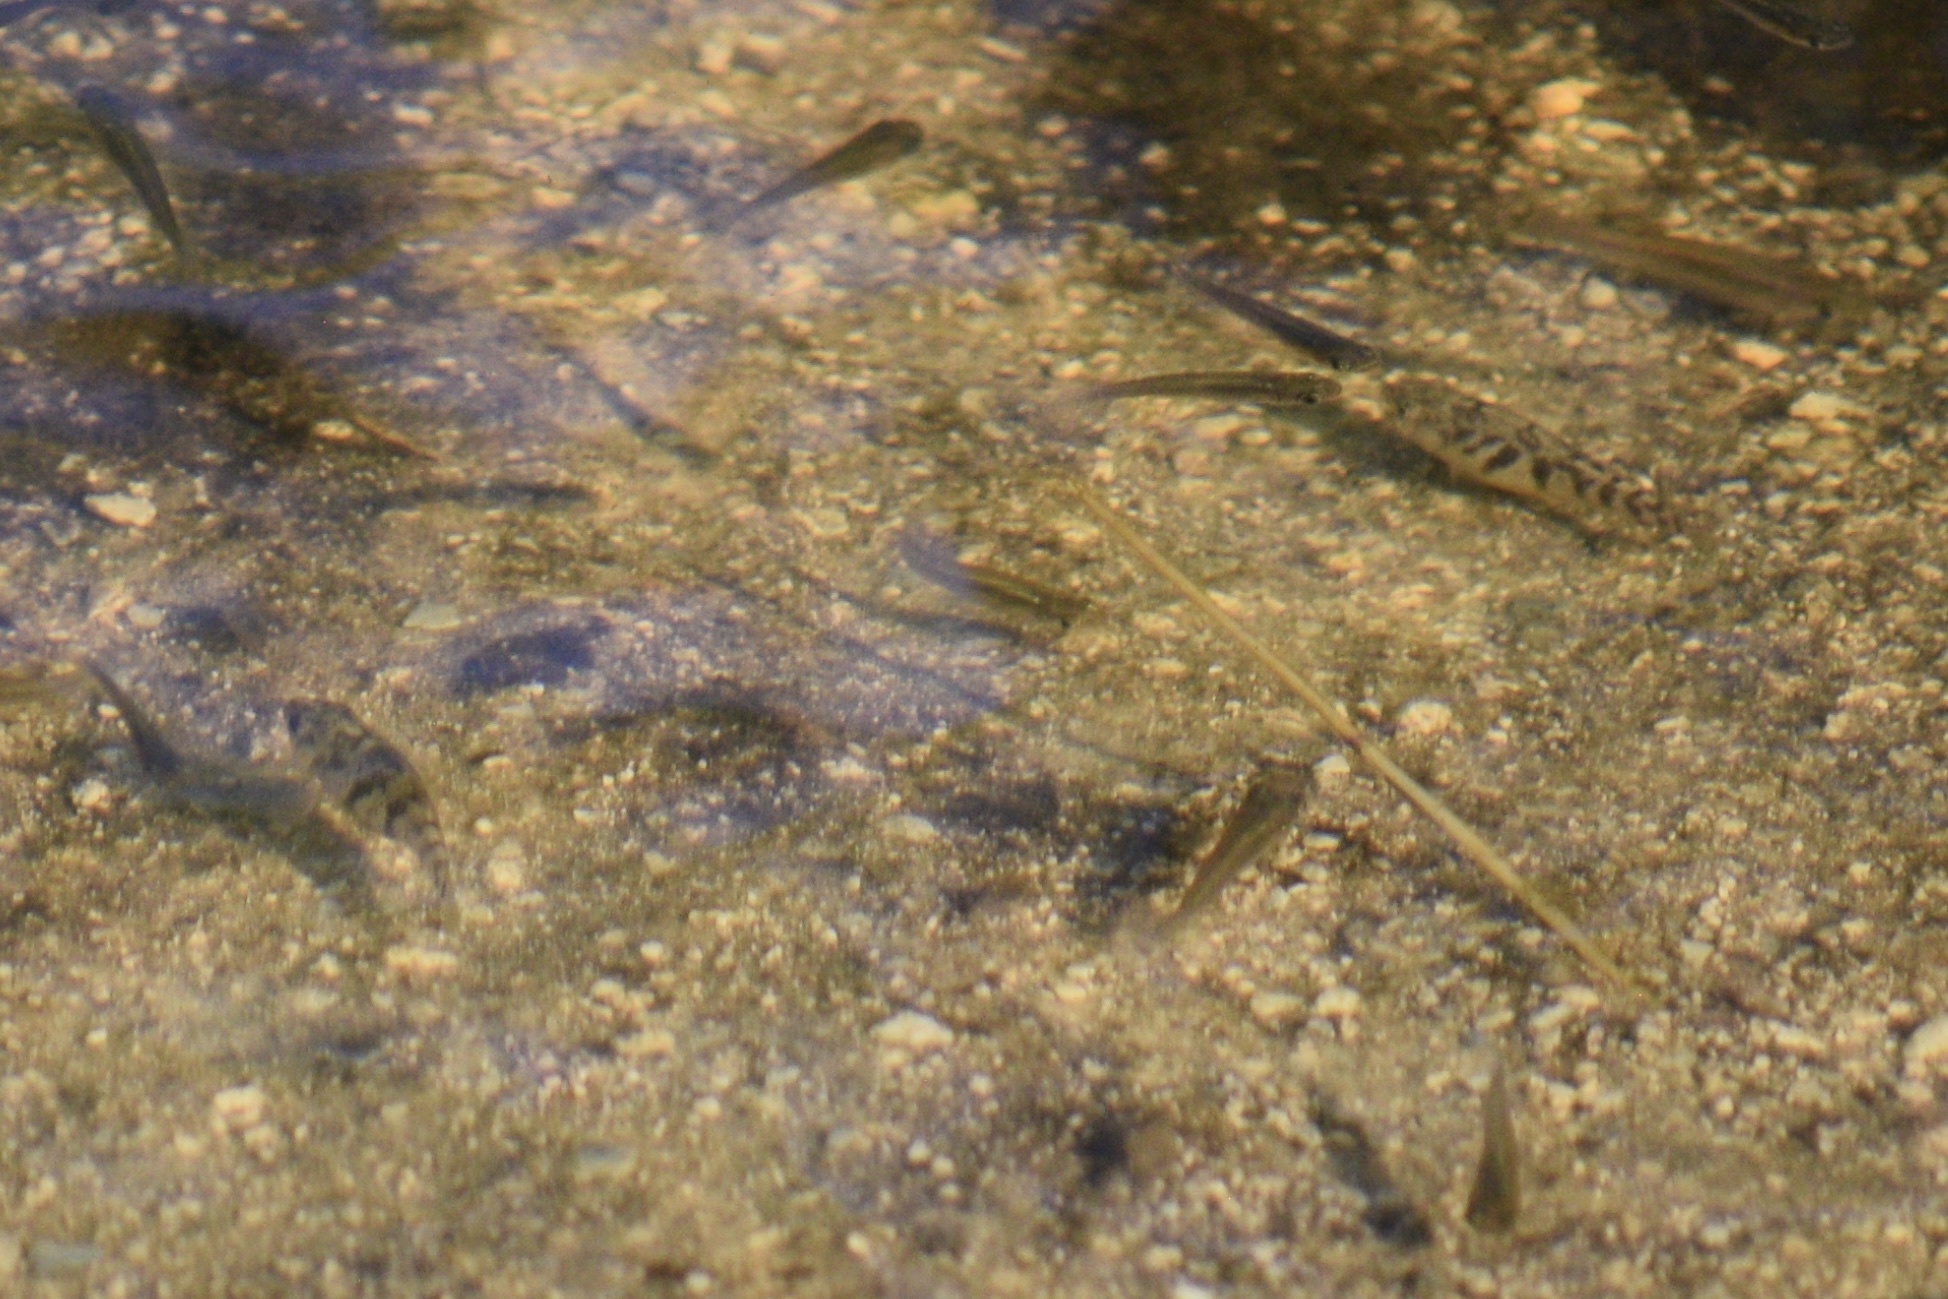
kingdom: Animalia
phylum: Chordata
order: Cyprinodontiformes
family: Cyprinodontidae
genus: Cyprinodon
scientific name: Cyprinodon variegatus
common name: Sheepshead minnow
